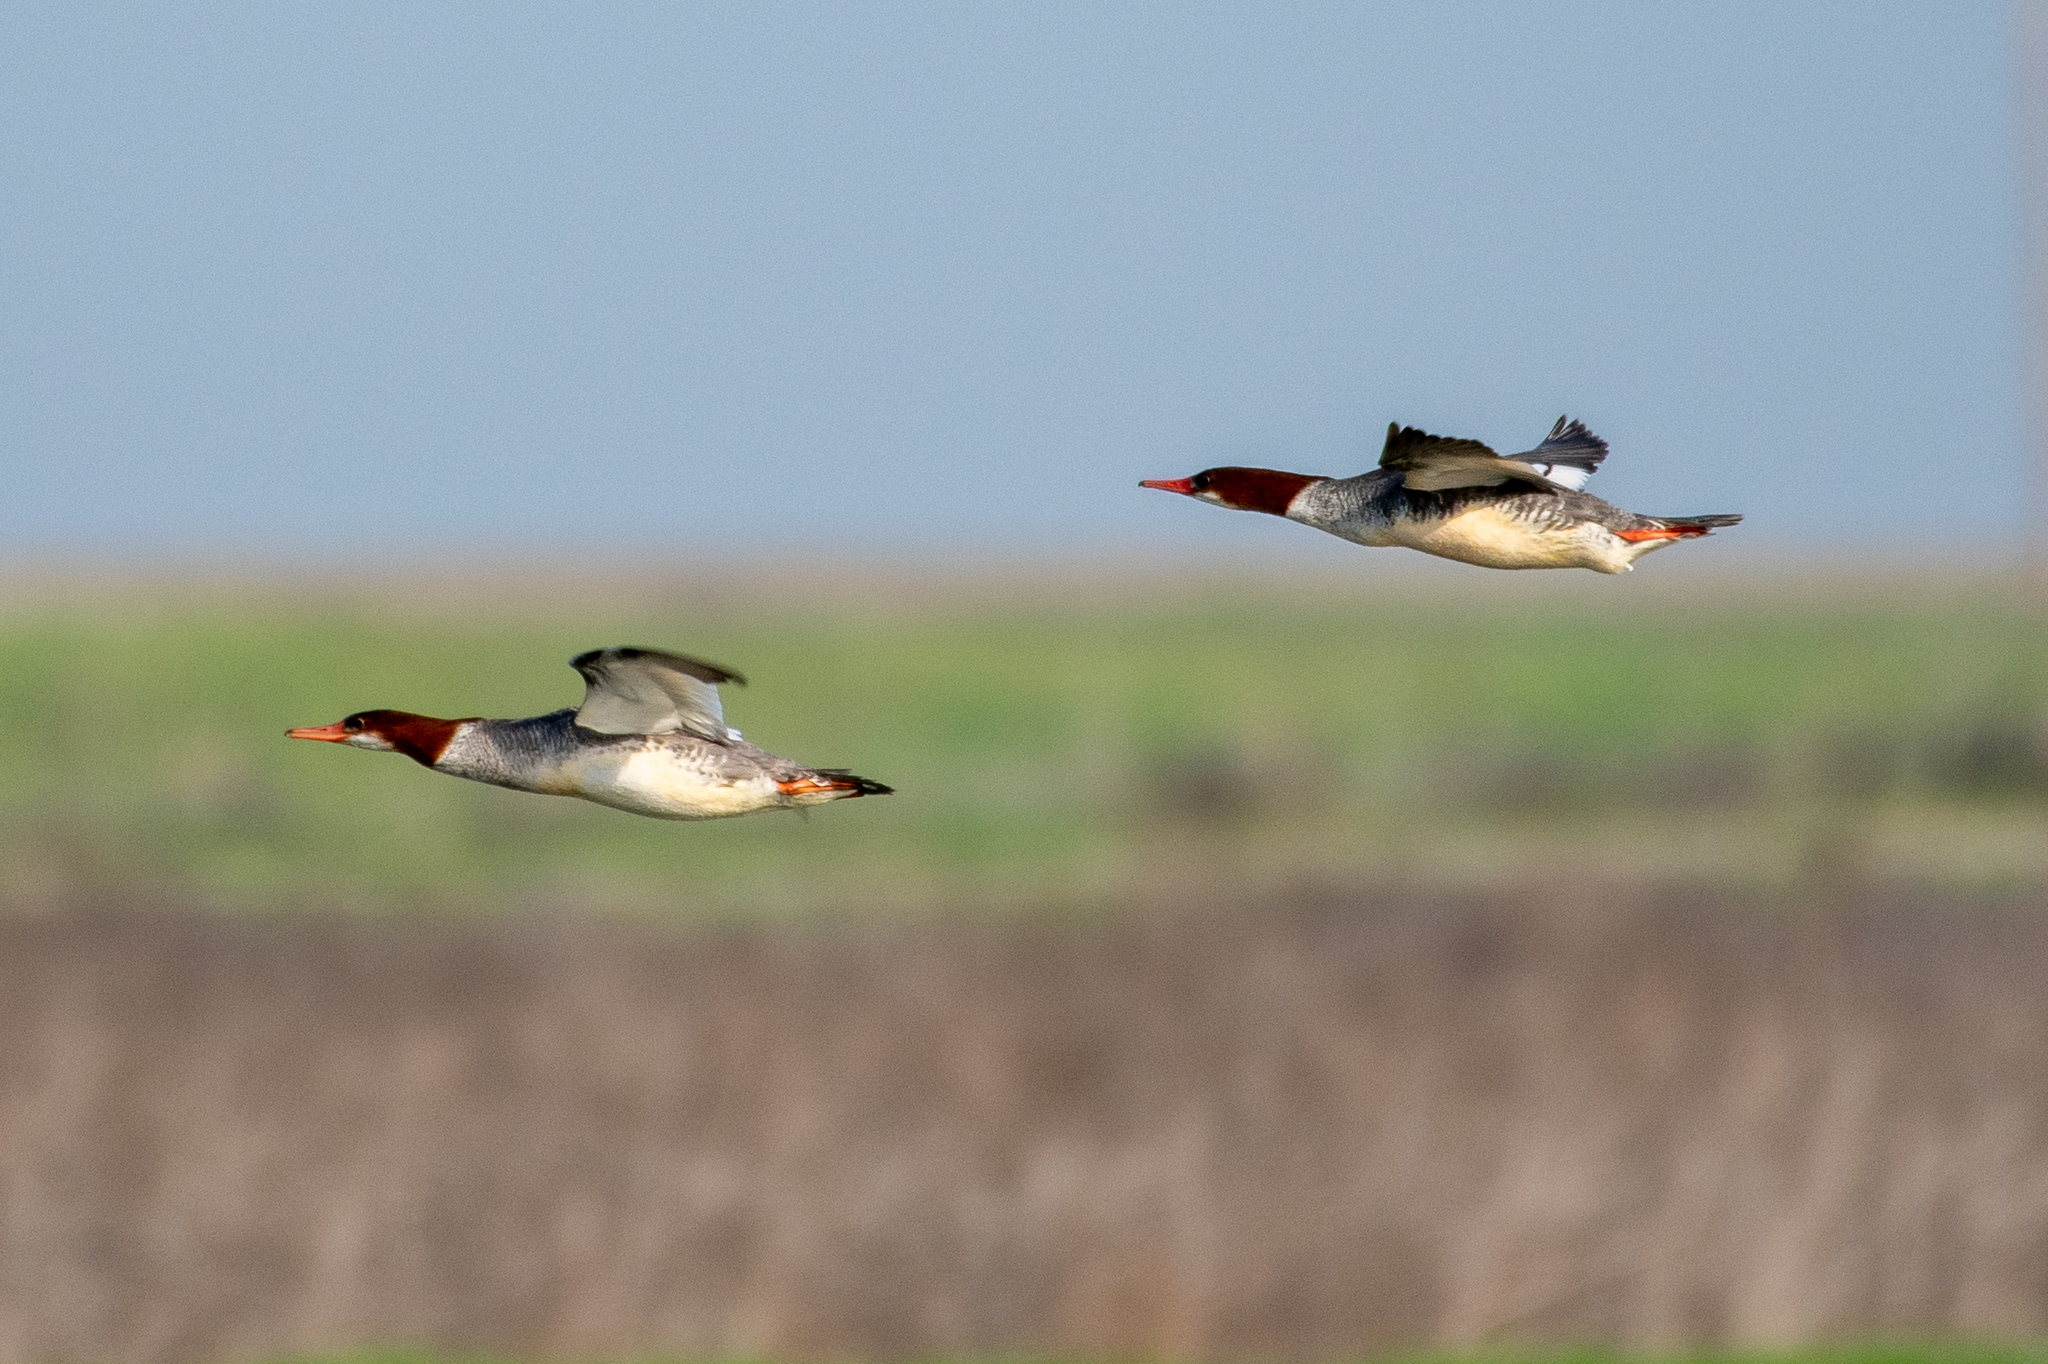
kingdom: Animalia
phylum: Chordata
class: Aves
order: Anseriformes
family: Anatidae
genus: Mergus
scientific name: Mergus merganser
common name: Common merganser
